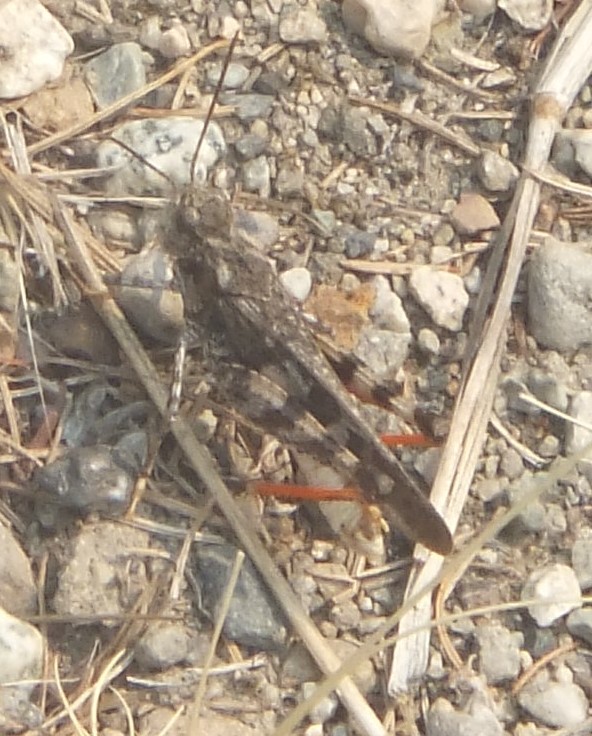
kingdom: Animalia
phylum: Arthropoda
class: Insecta
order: Orthoptera
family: Acrididae
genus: Cratypedes
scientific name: Cratypedes neglectus
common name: Pronotal range grasshopper
